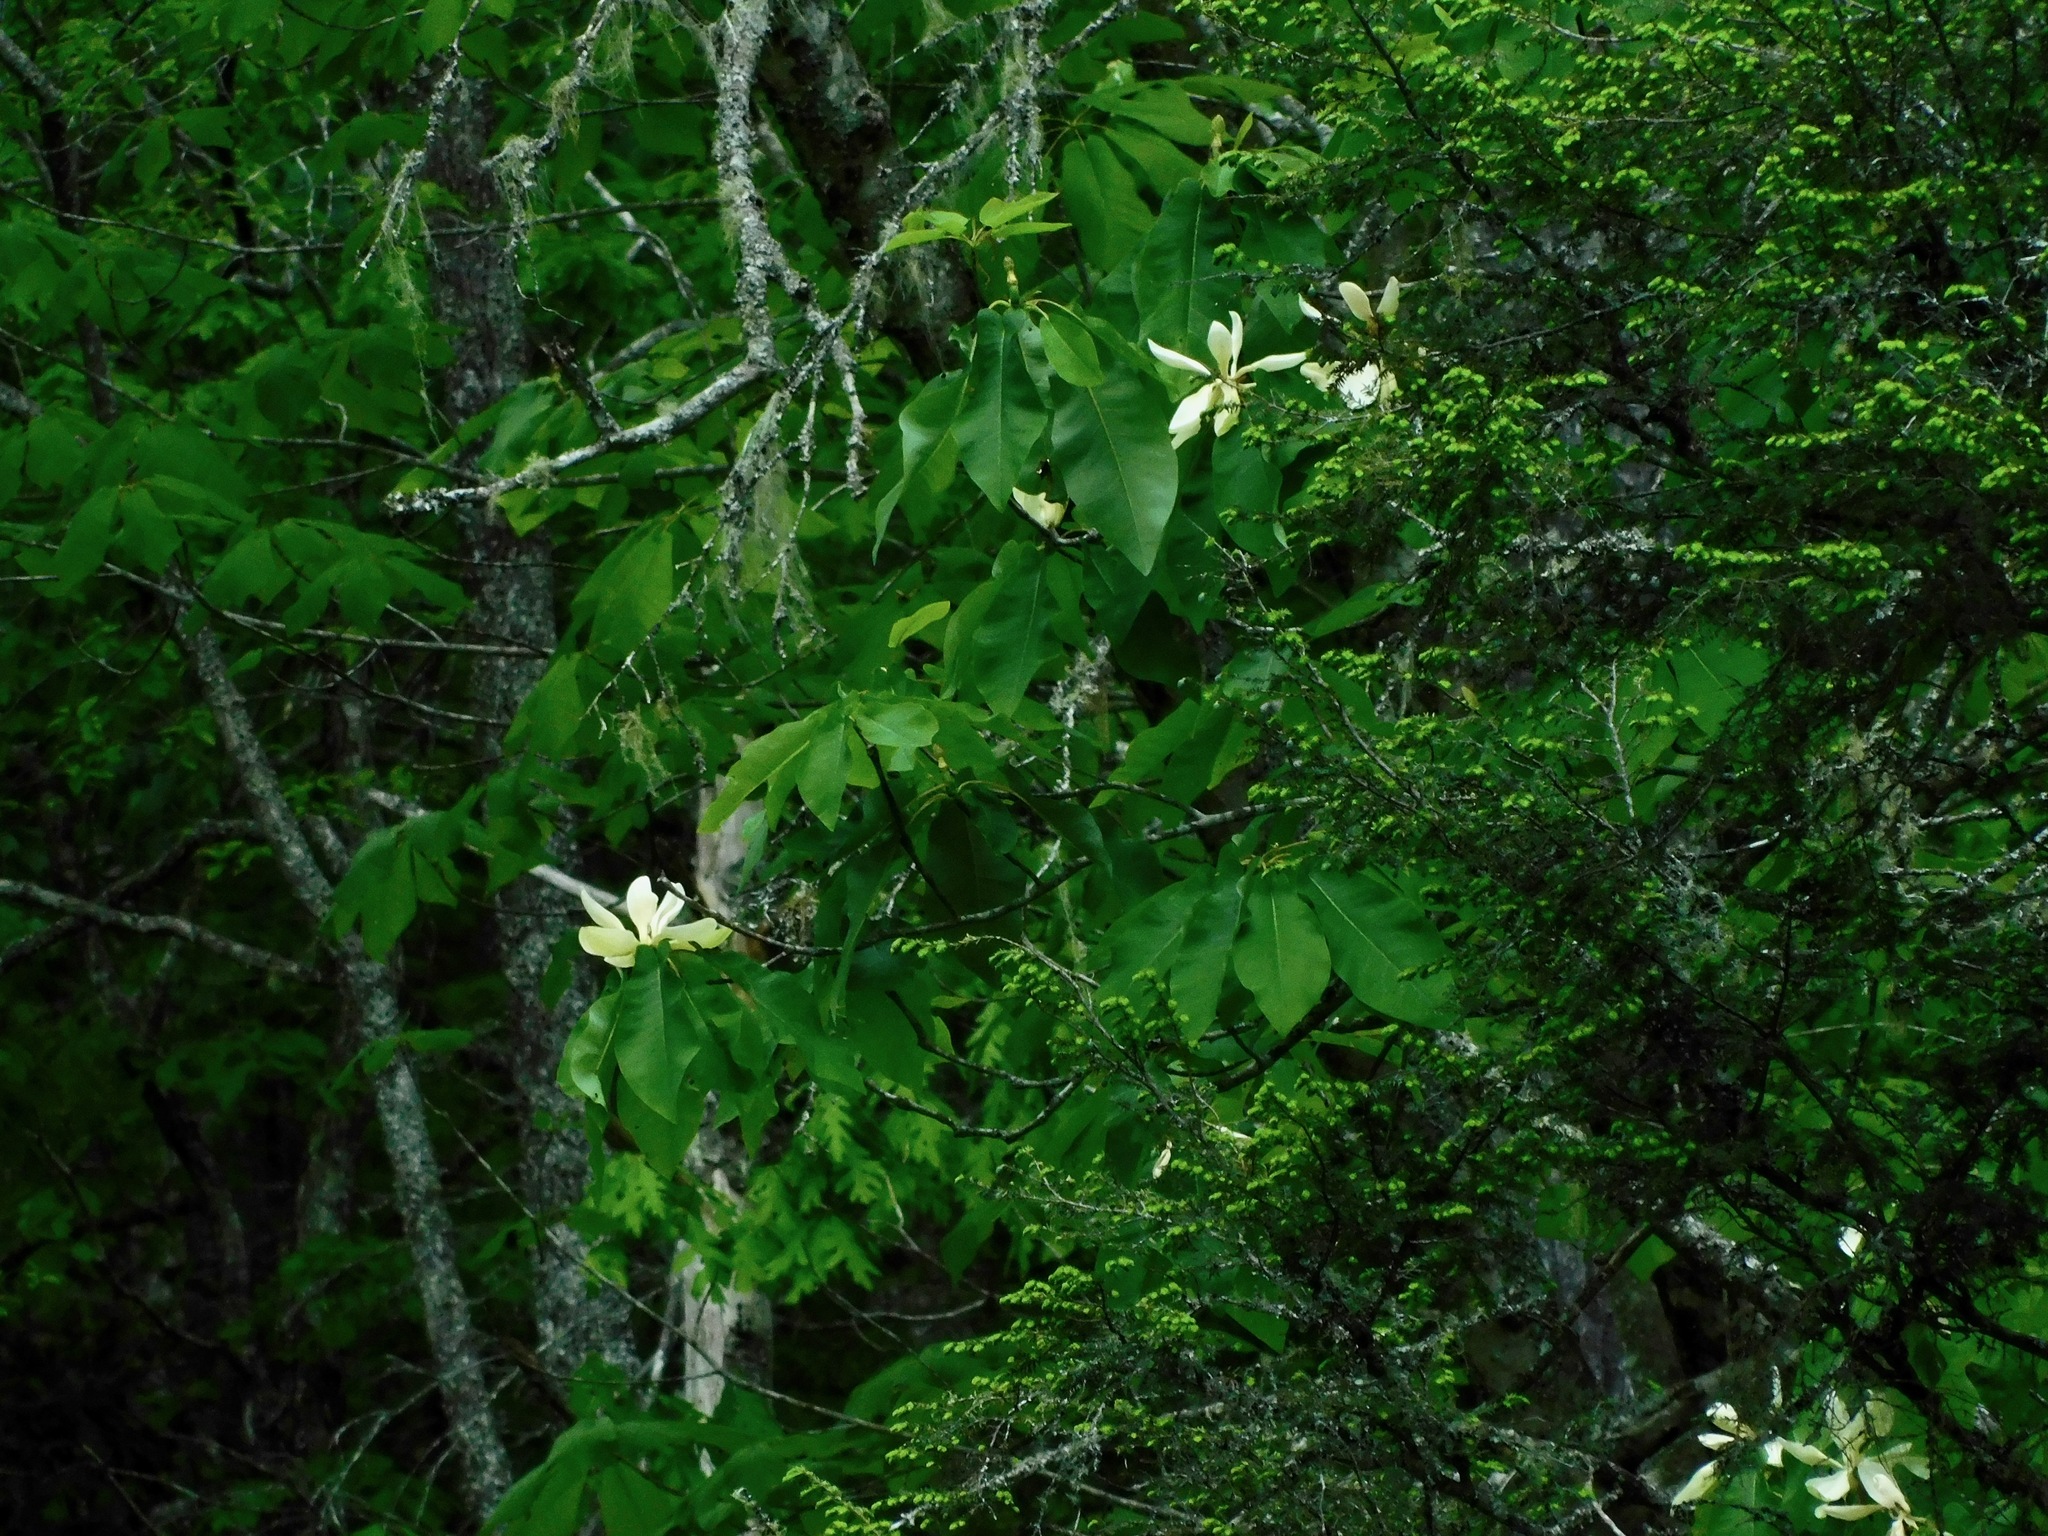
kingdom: Plantae
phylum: Tracheophyta
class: Magnoliopsida
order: Magnoliales
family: Magnoliaceae
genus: Magnolia
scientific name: Magnolia fraseri
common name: Fraser's magnolia
